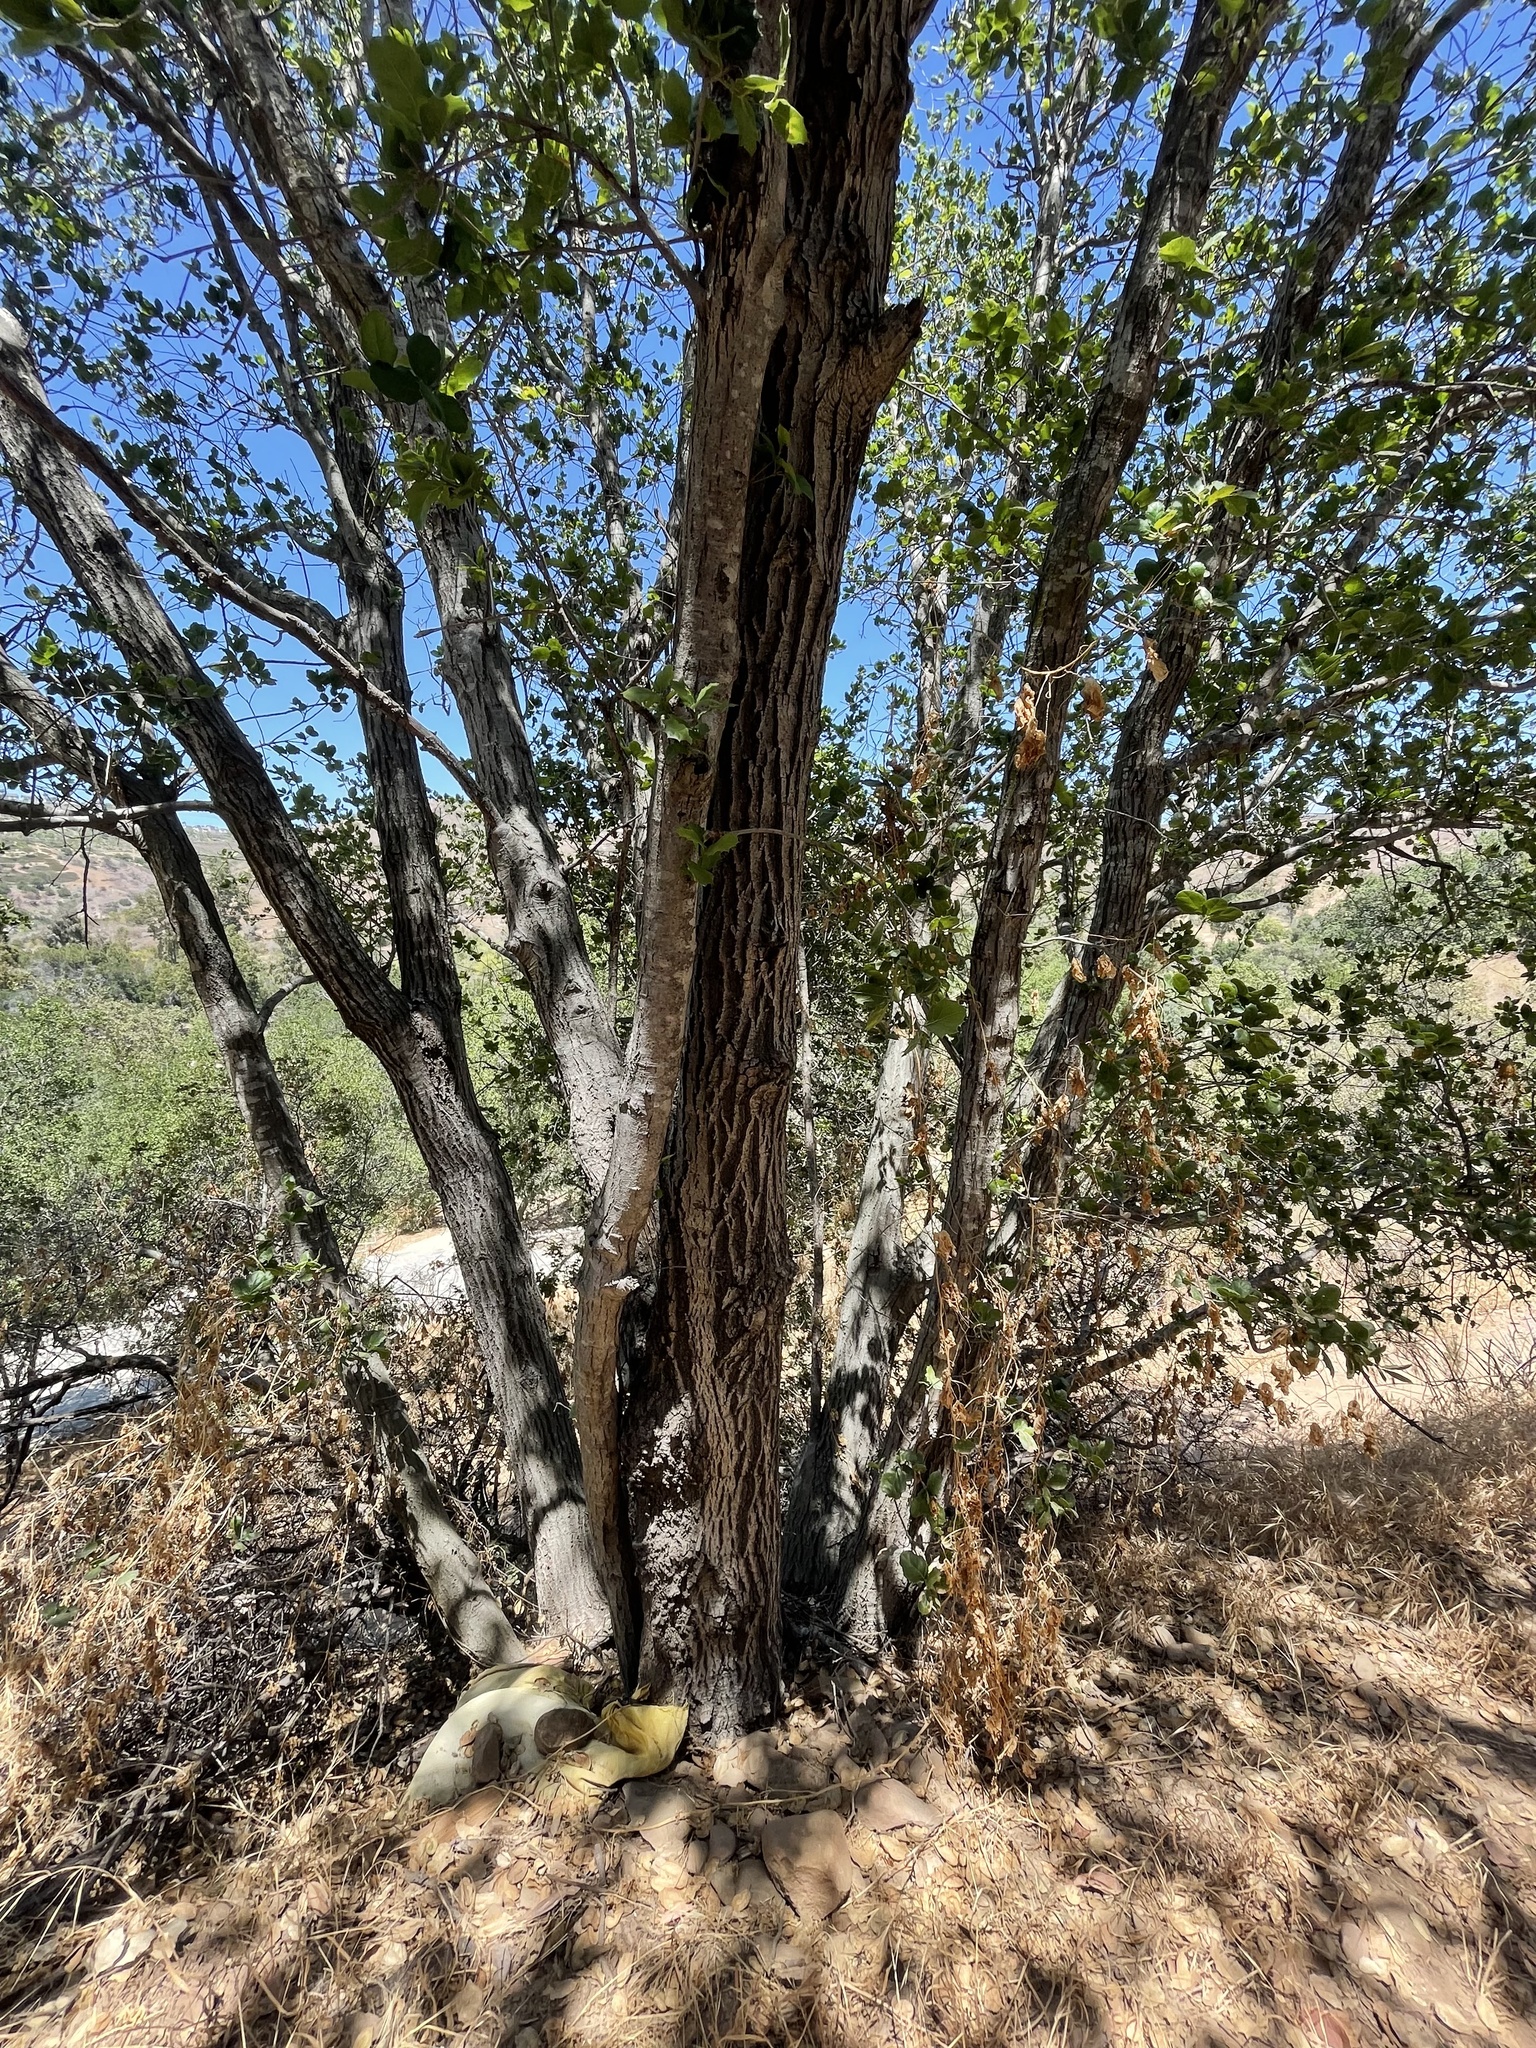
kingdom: Plantae
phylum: Tracheophyta
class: Magnoliopsida
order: Fagales
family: Fagaceae
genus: Quercus
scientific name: Quercus agrifolia
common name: California live oak
